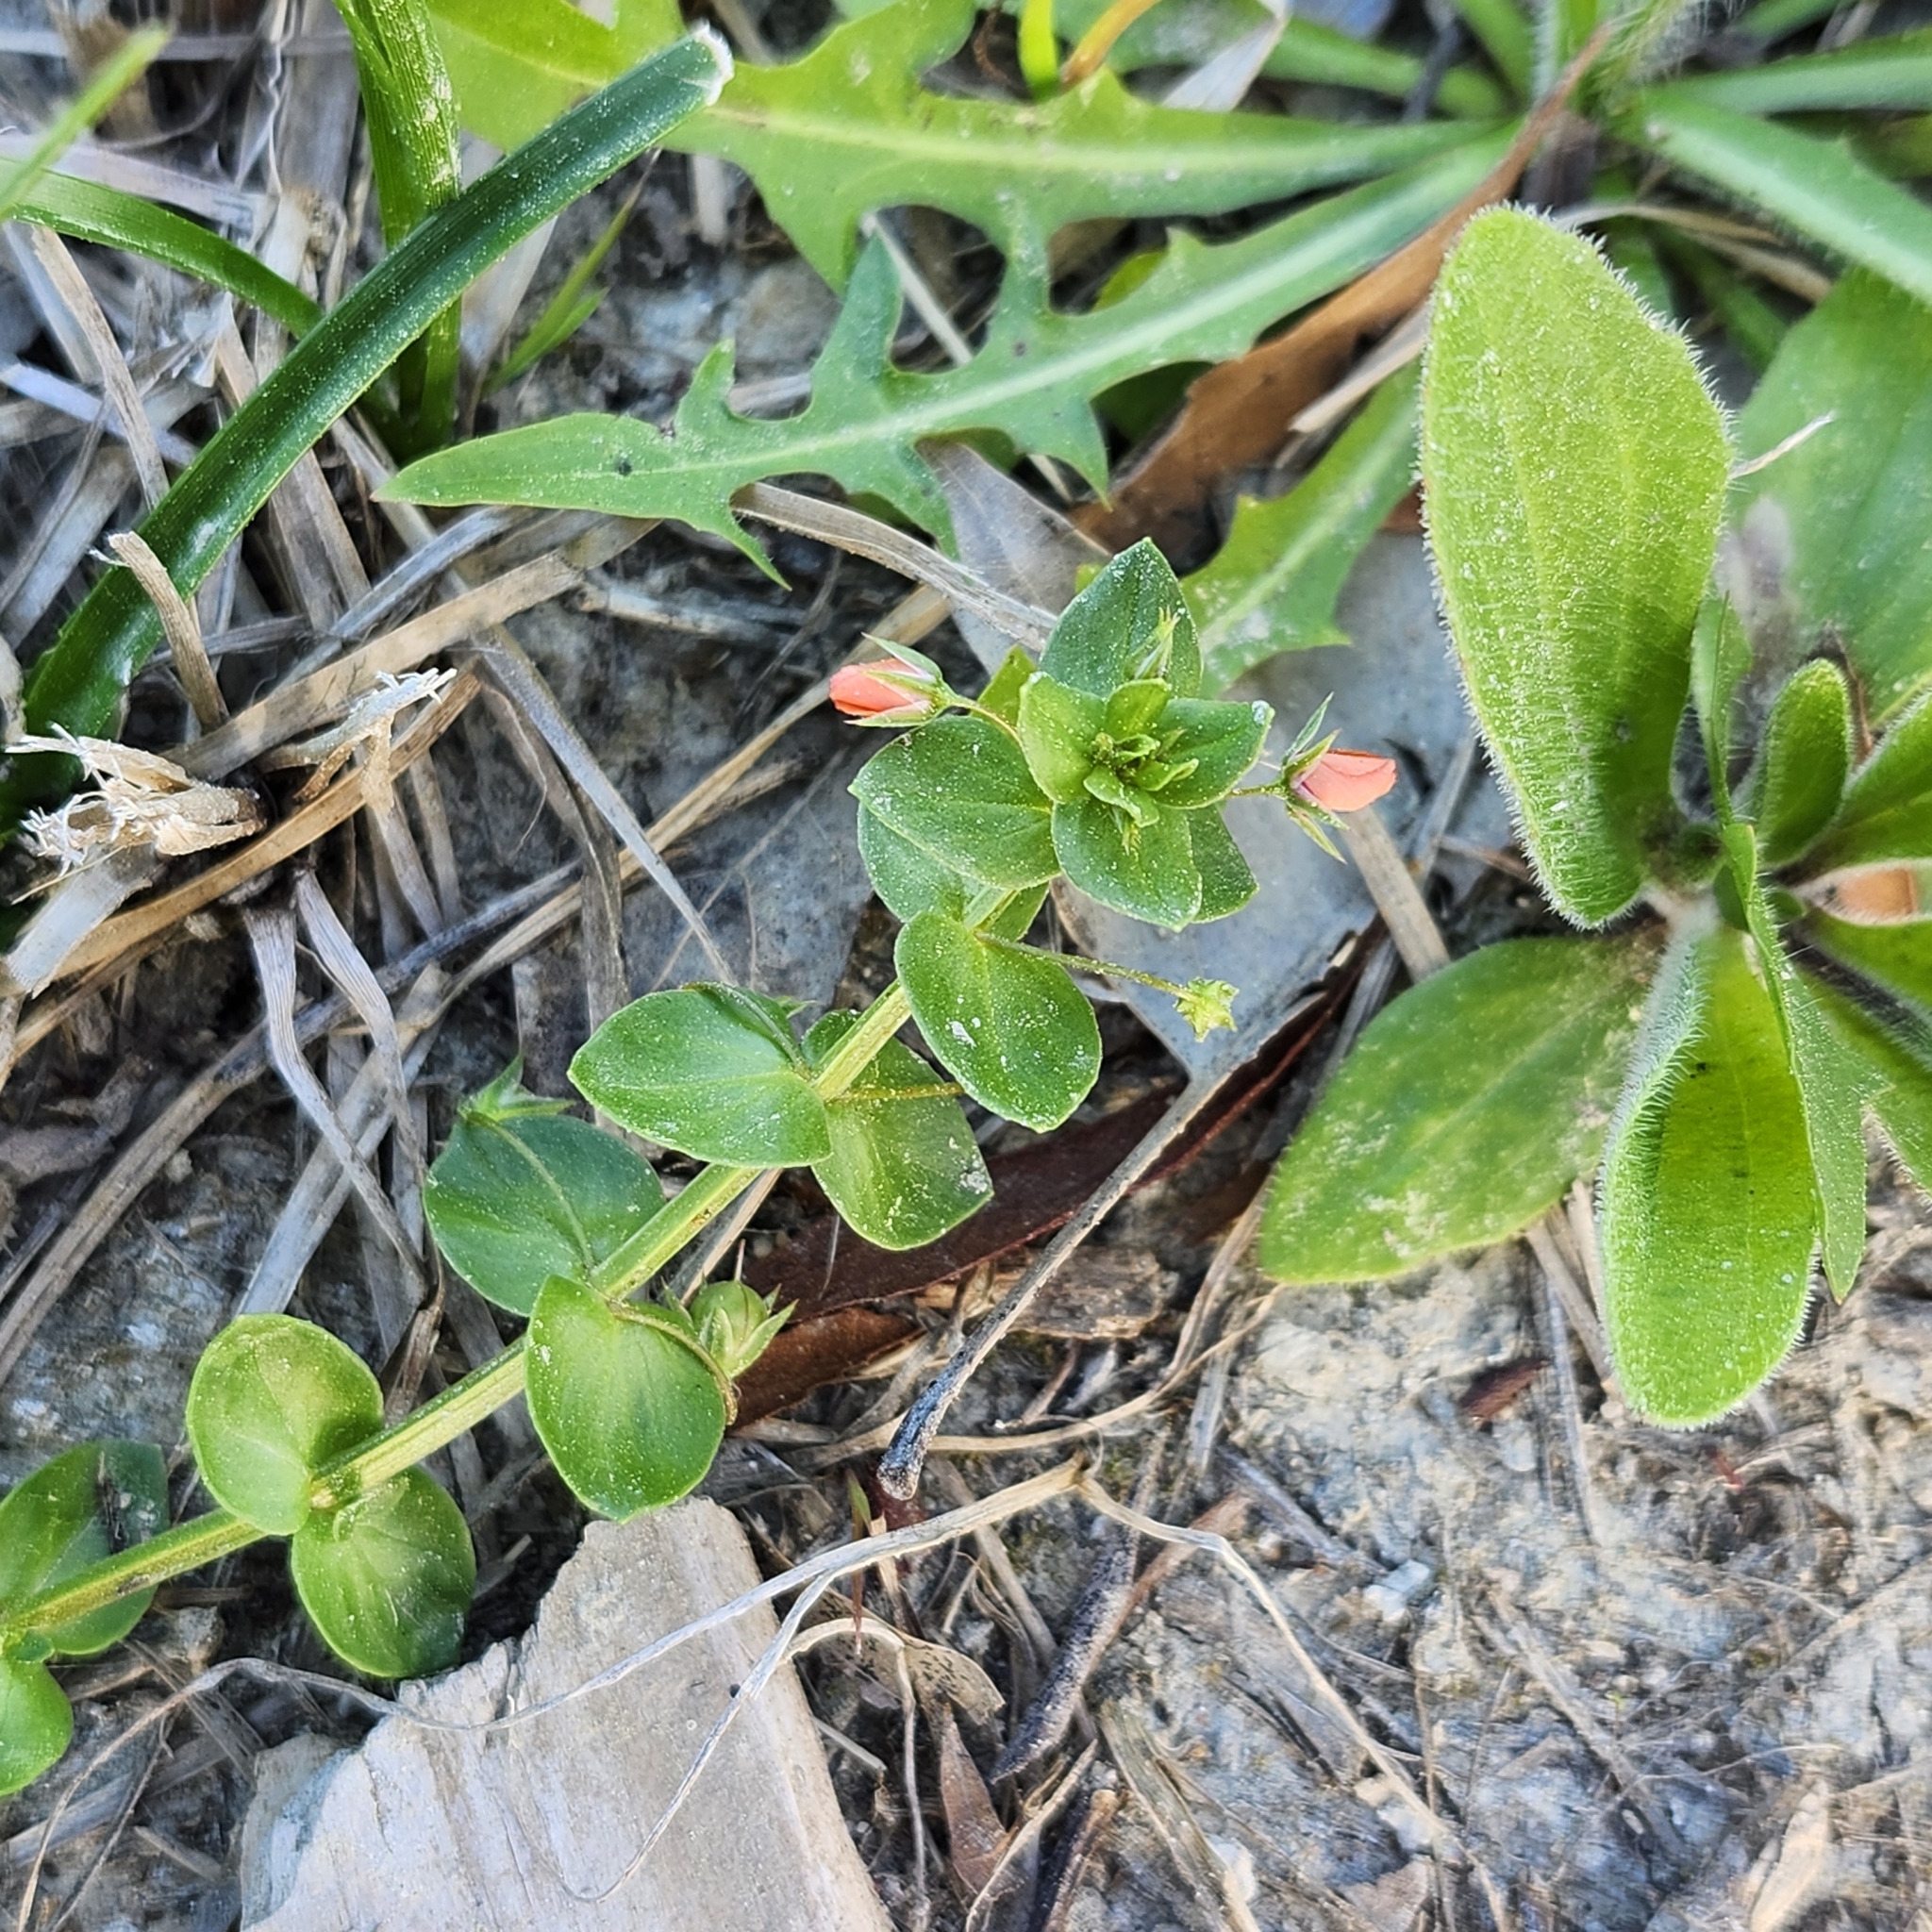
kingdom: Plantae
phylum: Tracheophyta
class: Magnoliopsida
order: Ericales
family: Primulaceae
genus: Lysimachia
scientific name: Lysimachia arvensis
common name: Scarlet pimpernel
